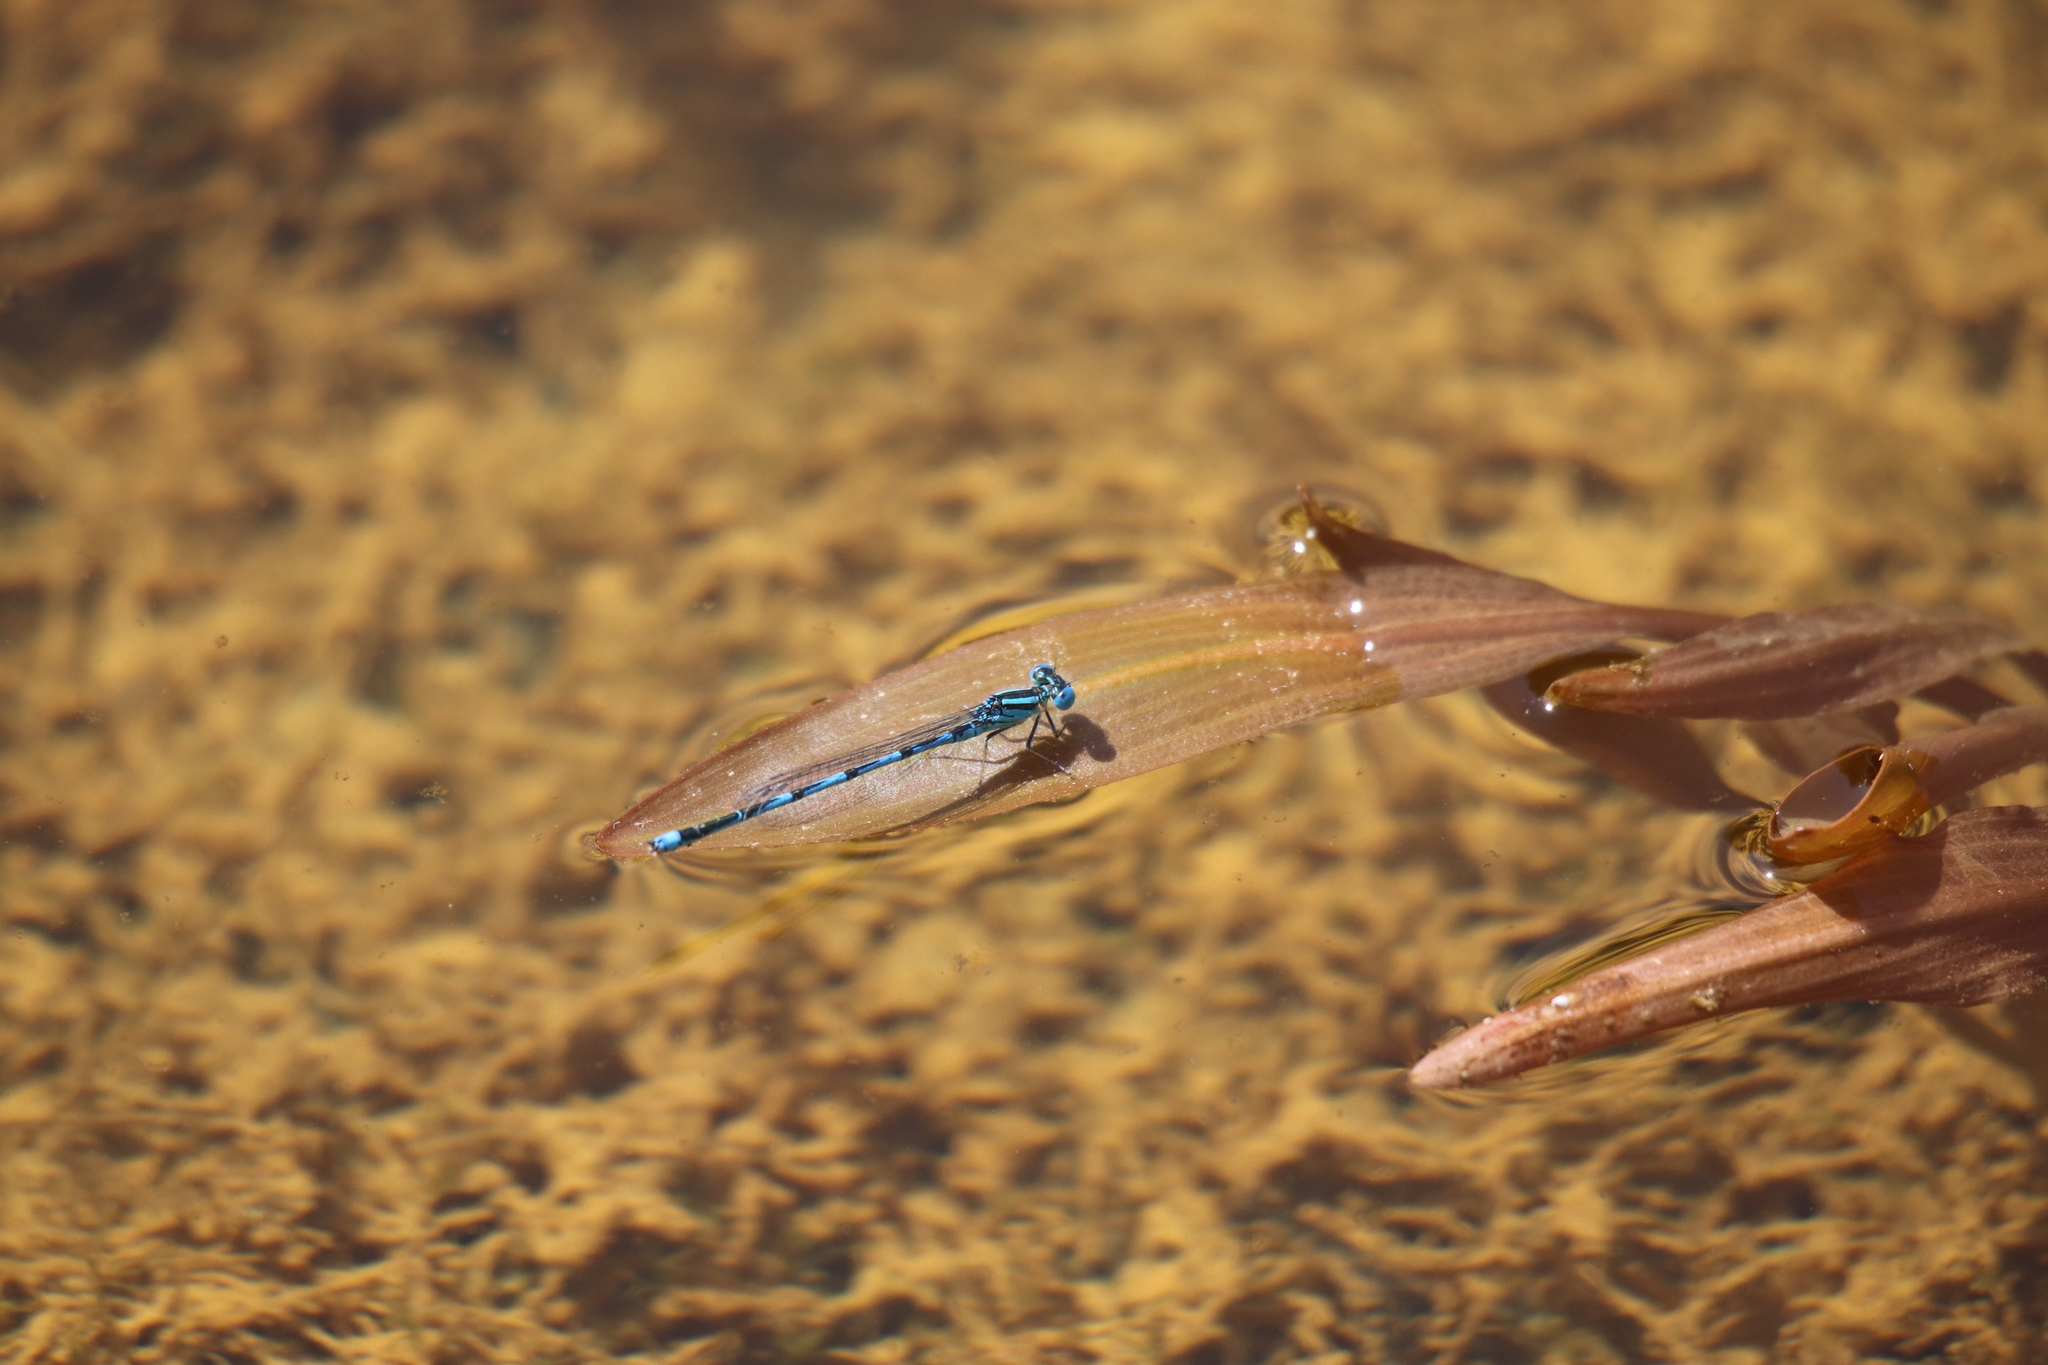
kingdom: Animalia
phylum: Arthropoda
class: Insecta
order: Odonata
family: Coenagrionidae
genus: Erythromma
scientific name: Erythromma lindenii
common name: Blue-eye
